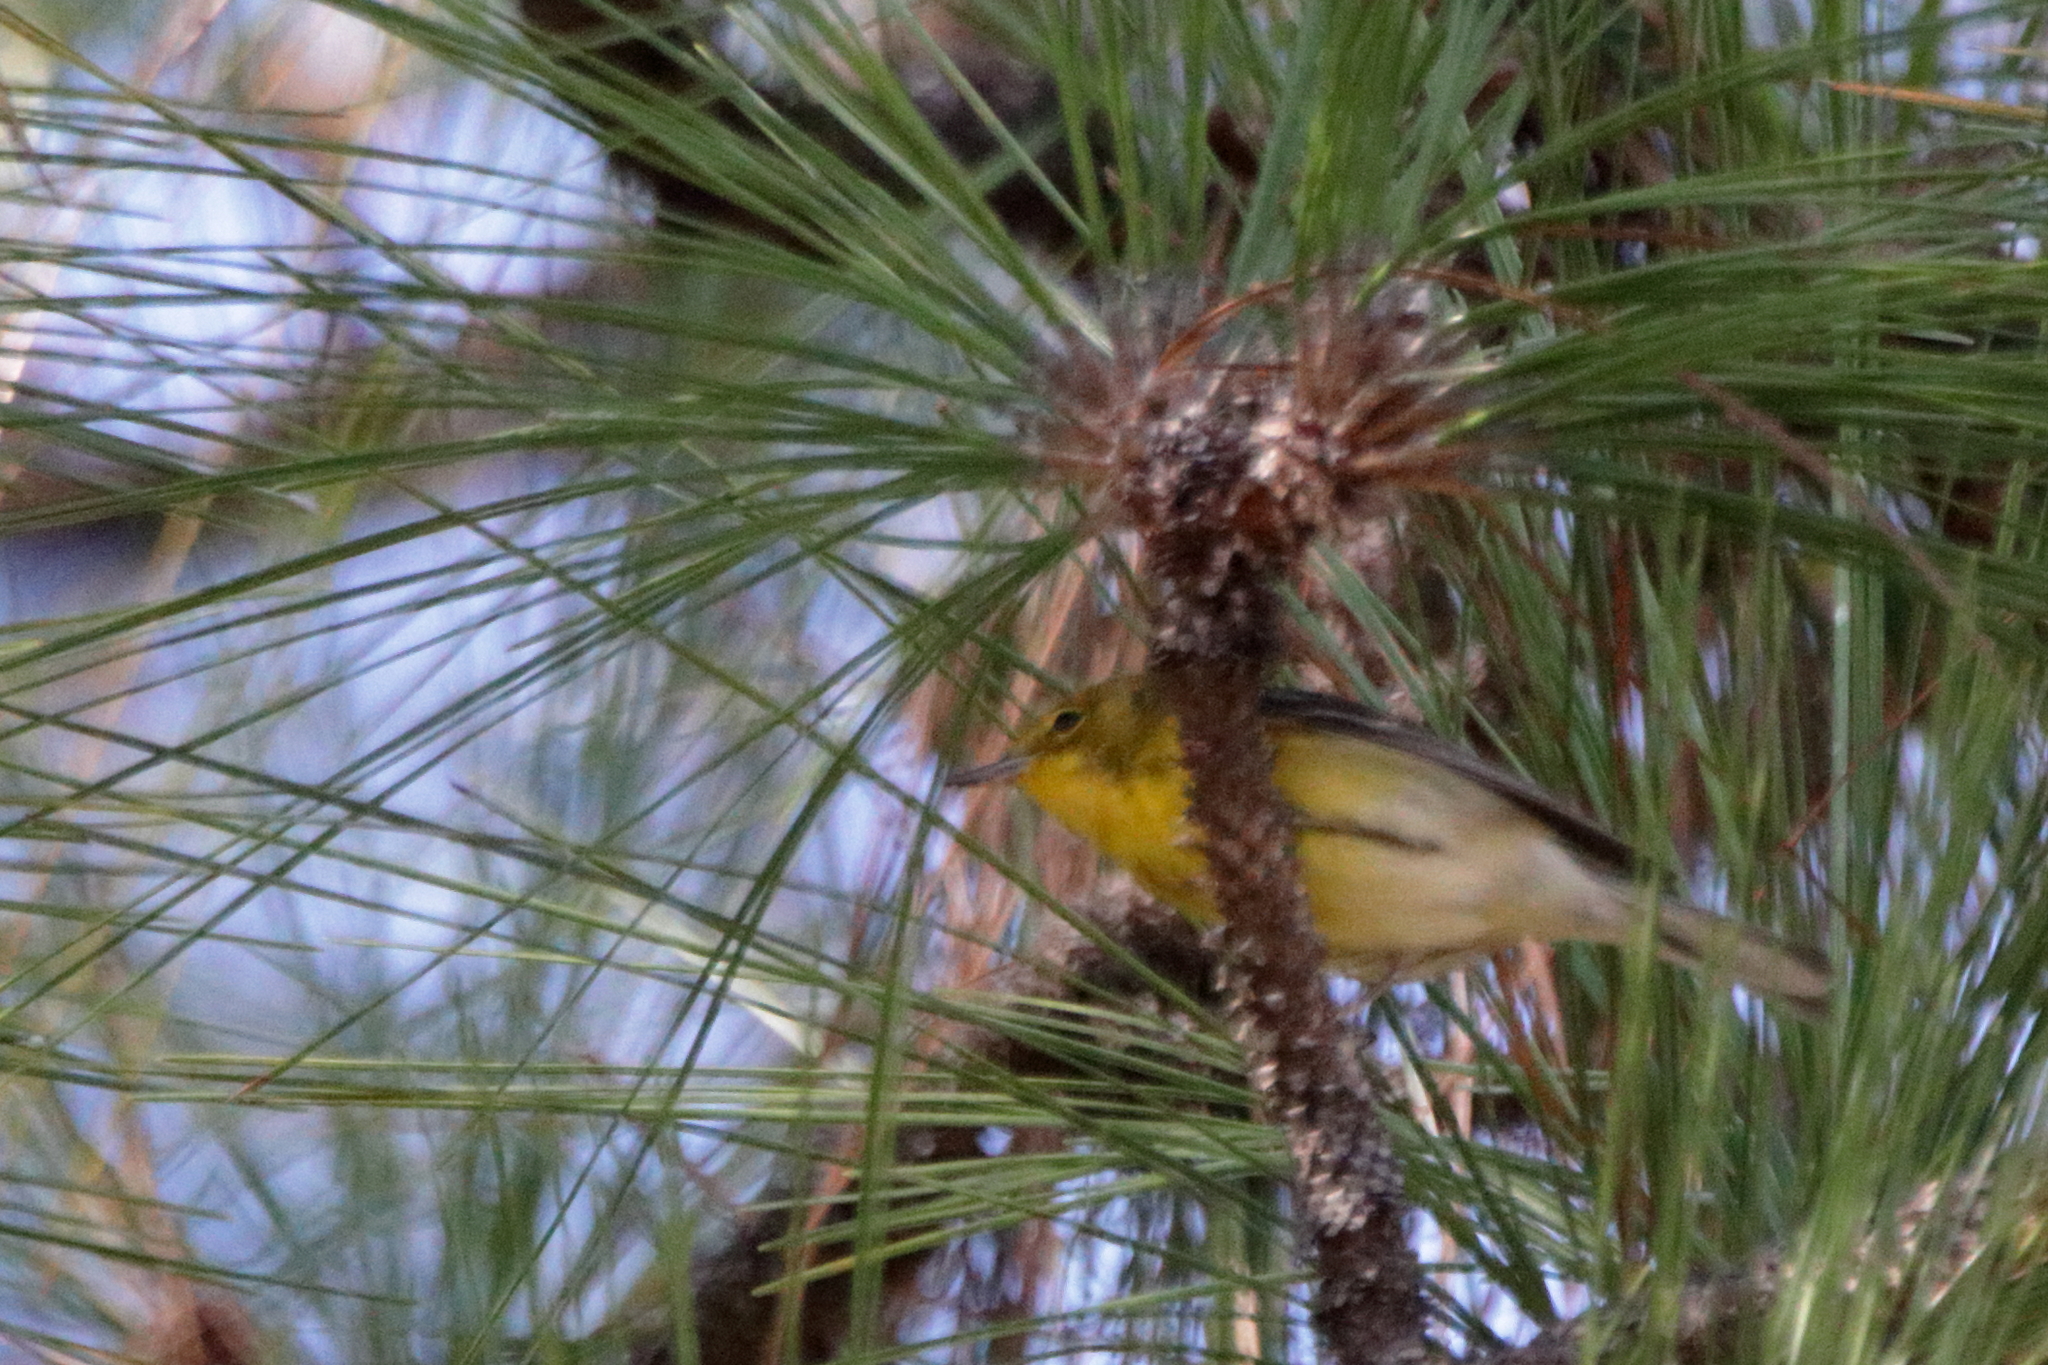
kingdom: Animalia
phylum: Chordata
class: Aves
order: Passeriformes
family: Parulidae
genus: Setophaga
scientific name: Setophaga pinus
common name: Pine warbler
